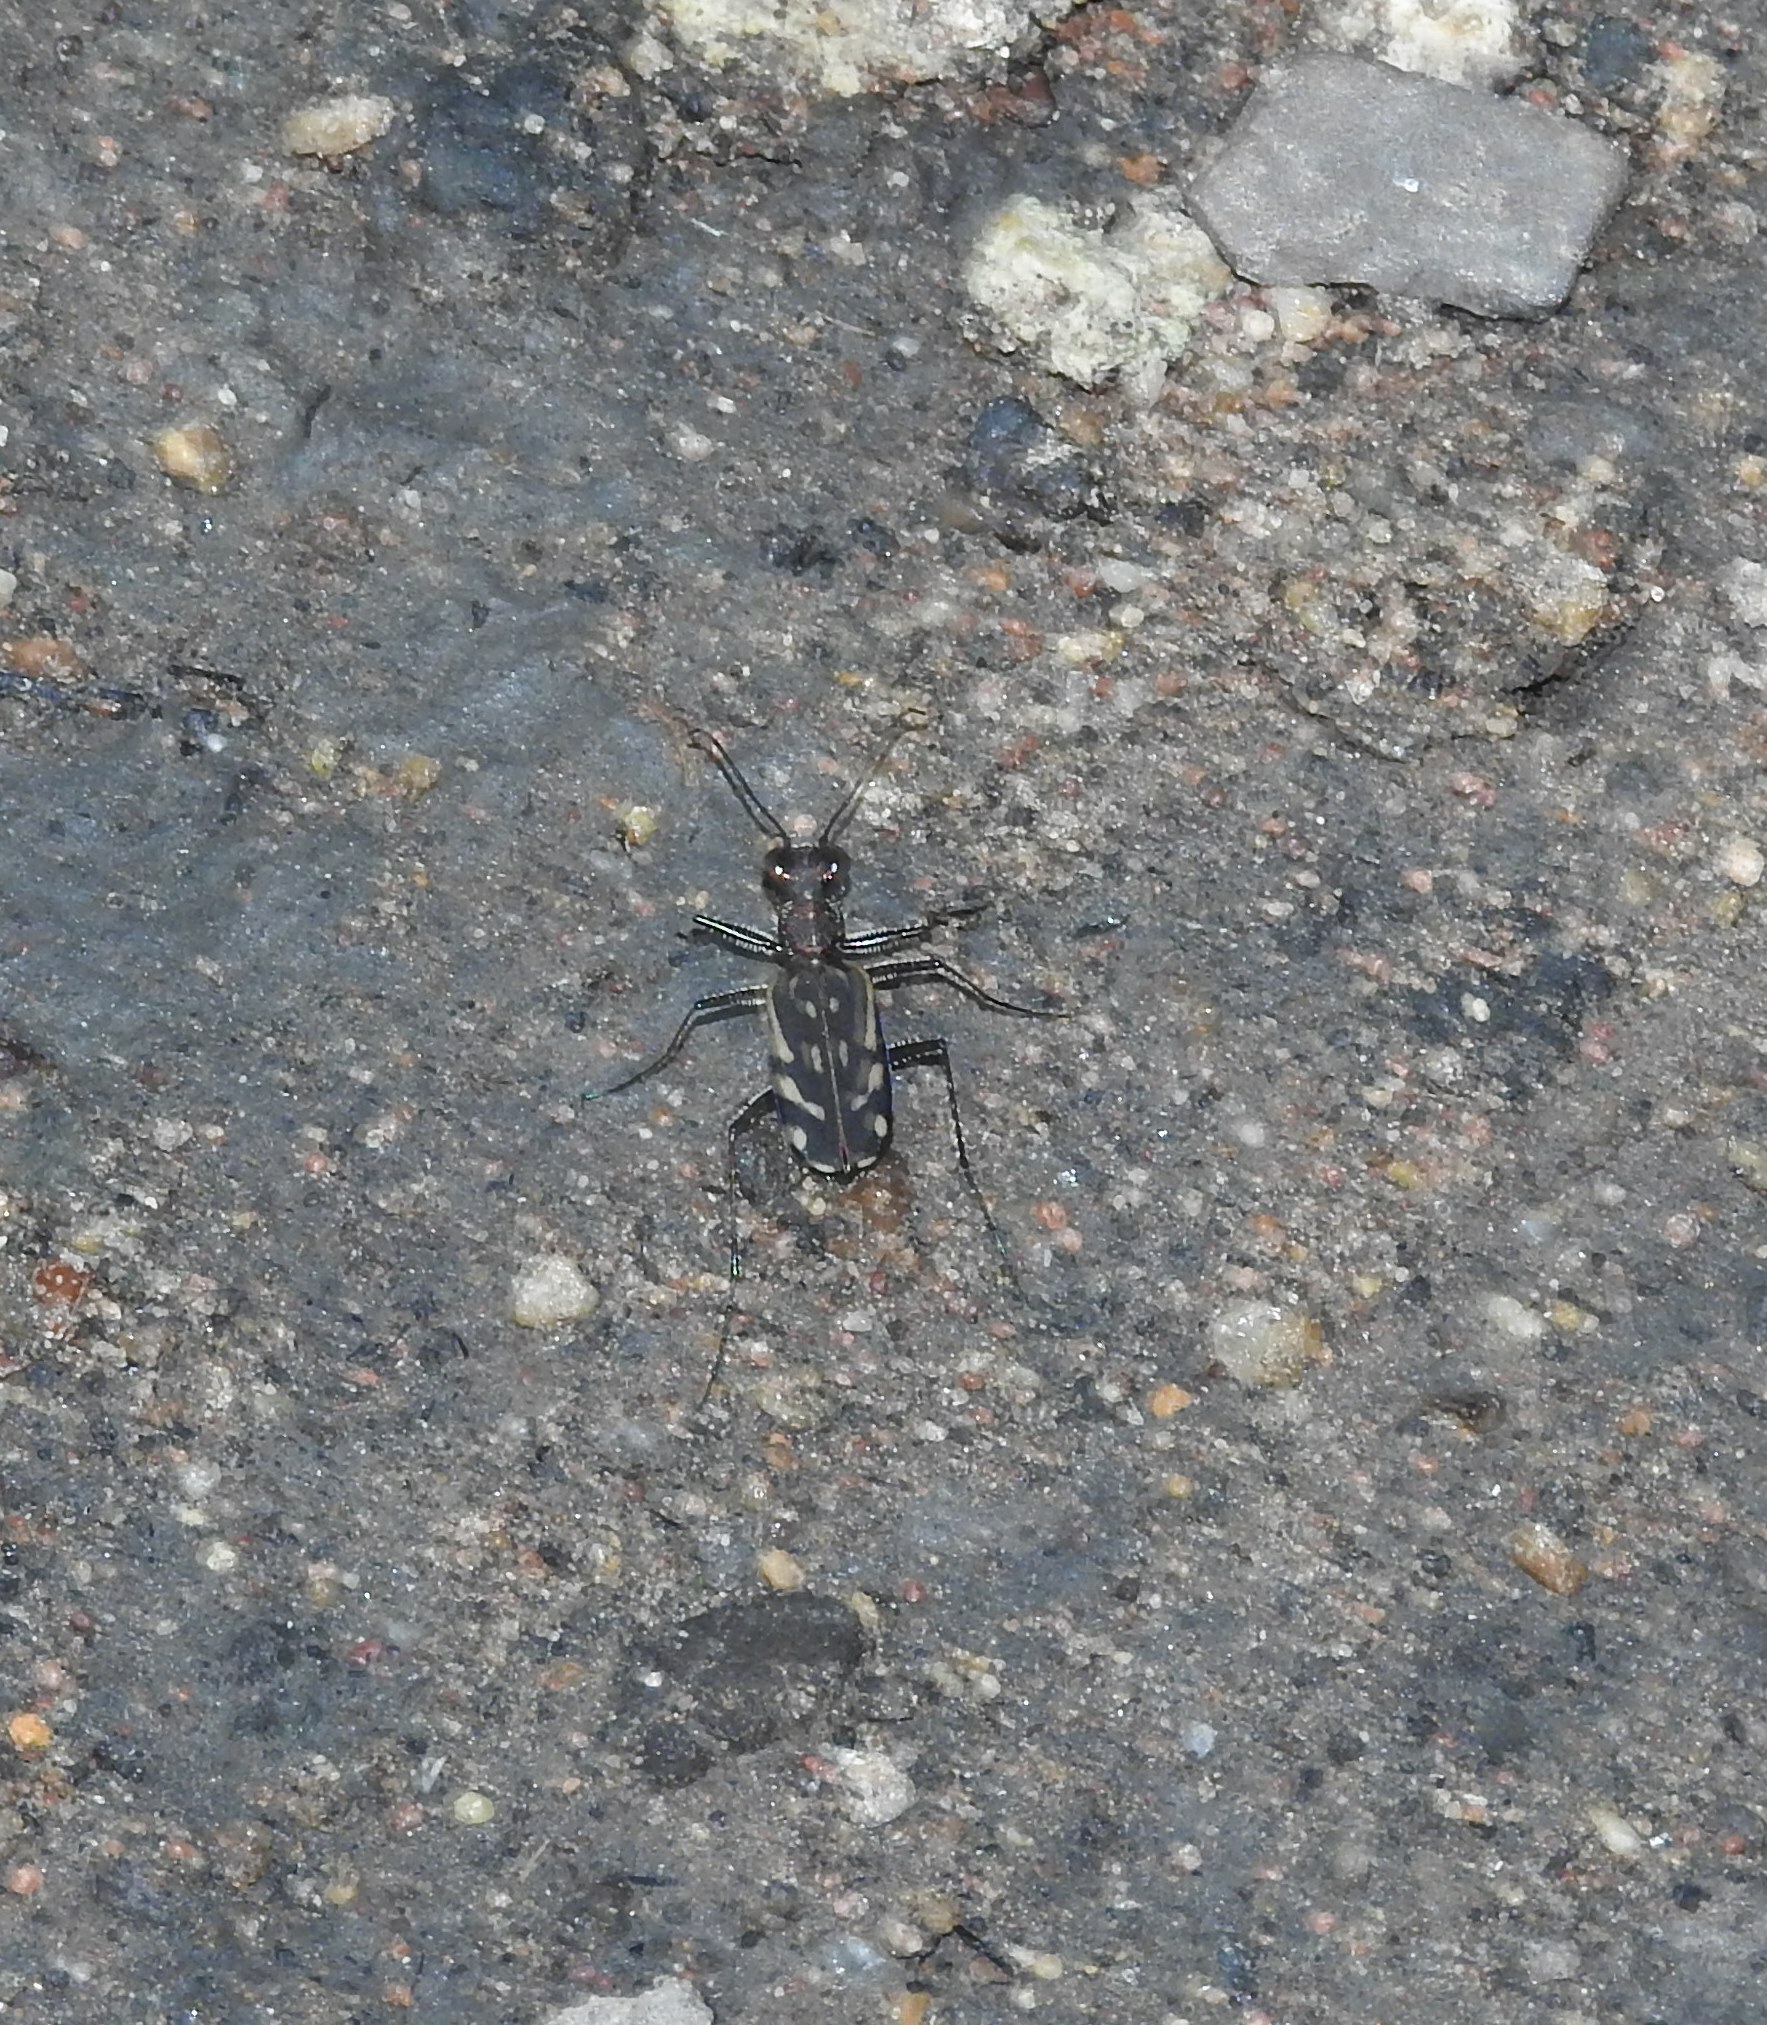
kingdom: Animalia
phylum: Arthropoda
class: Insecta
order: Coleoptera
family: Carabidae
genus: Lophyra
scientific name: Lophyra striolata
